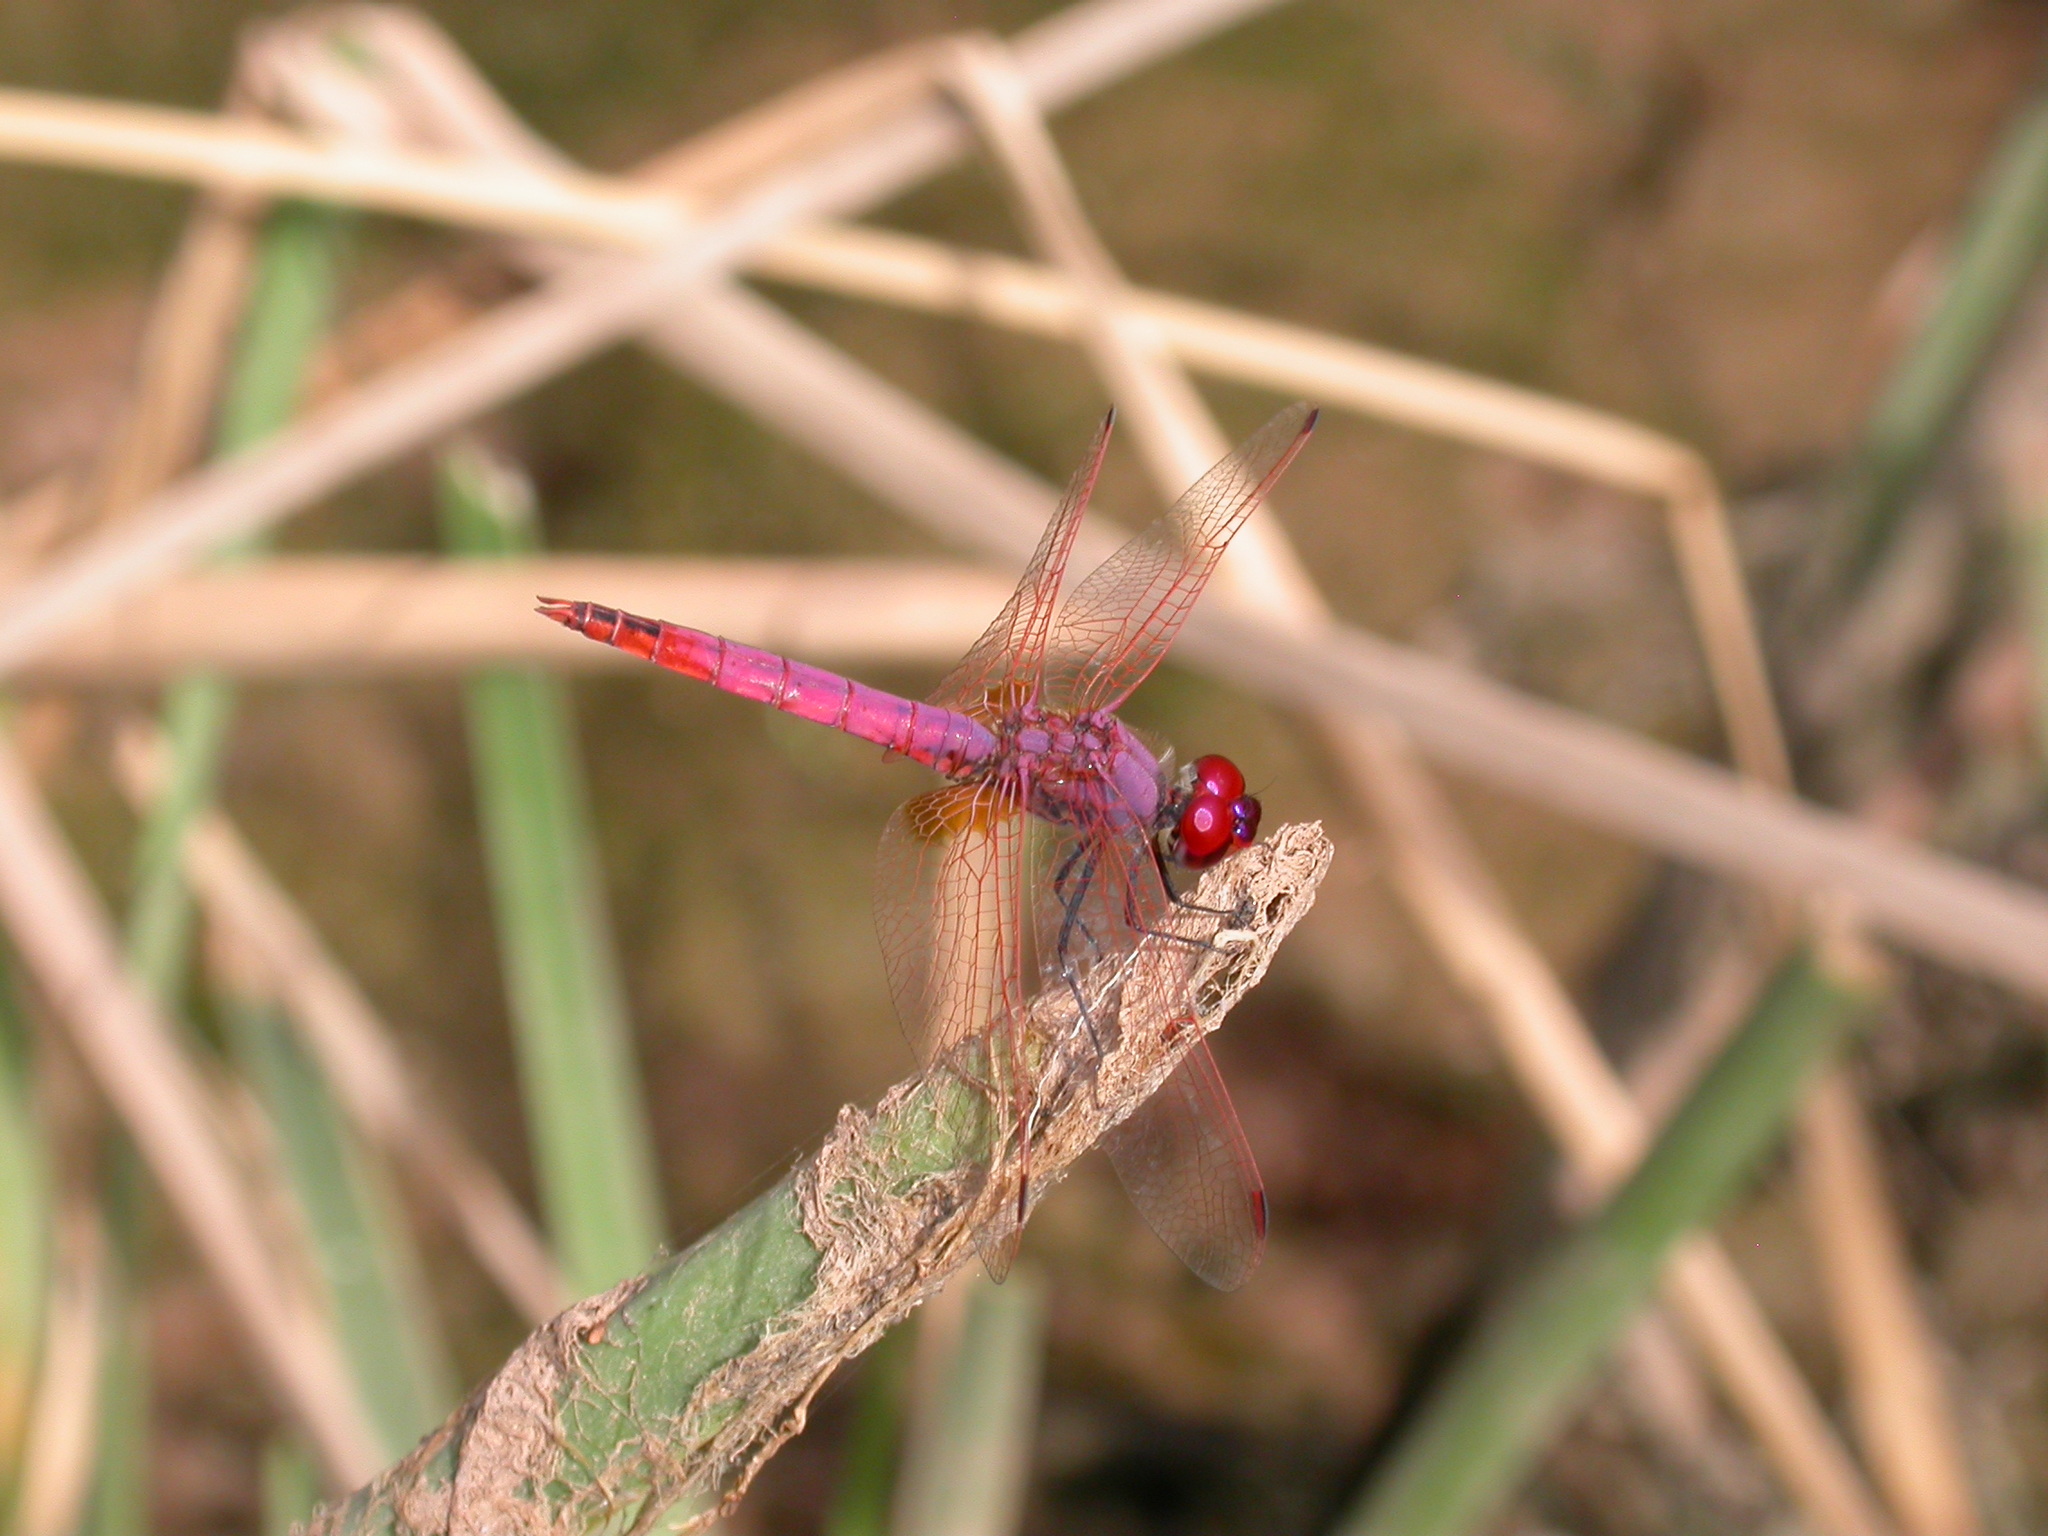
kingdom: Animalia
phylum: Arthropoda
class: Insecta
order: Odonata
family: Libellulidae
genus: Trithemis
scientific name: Trithemis annulata
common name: Violet dropwing
